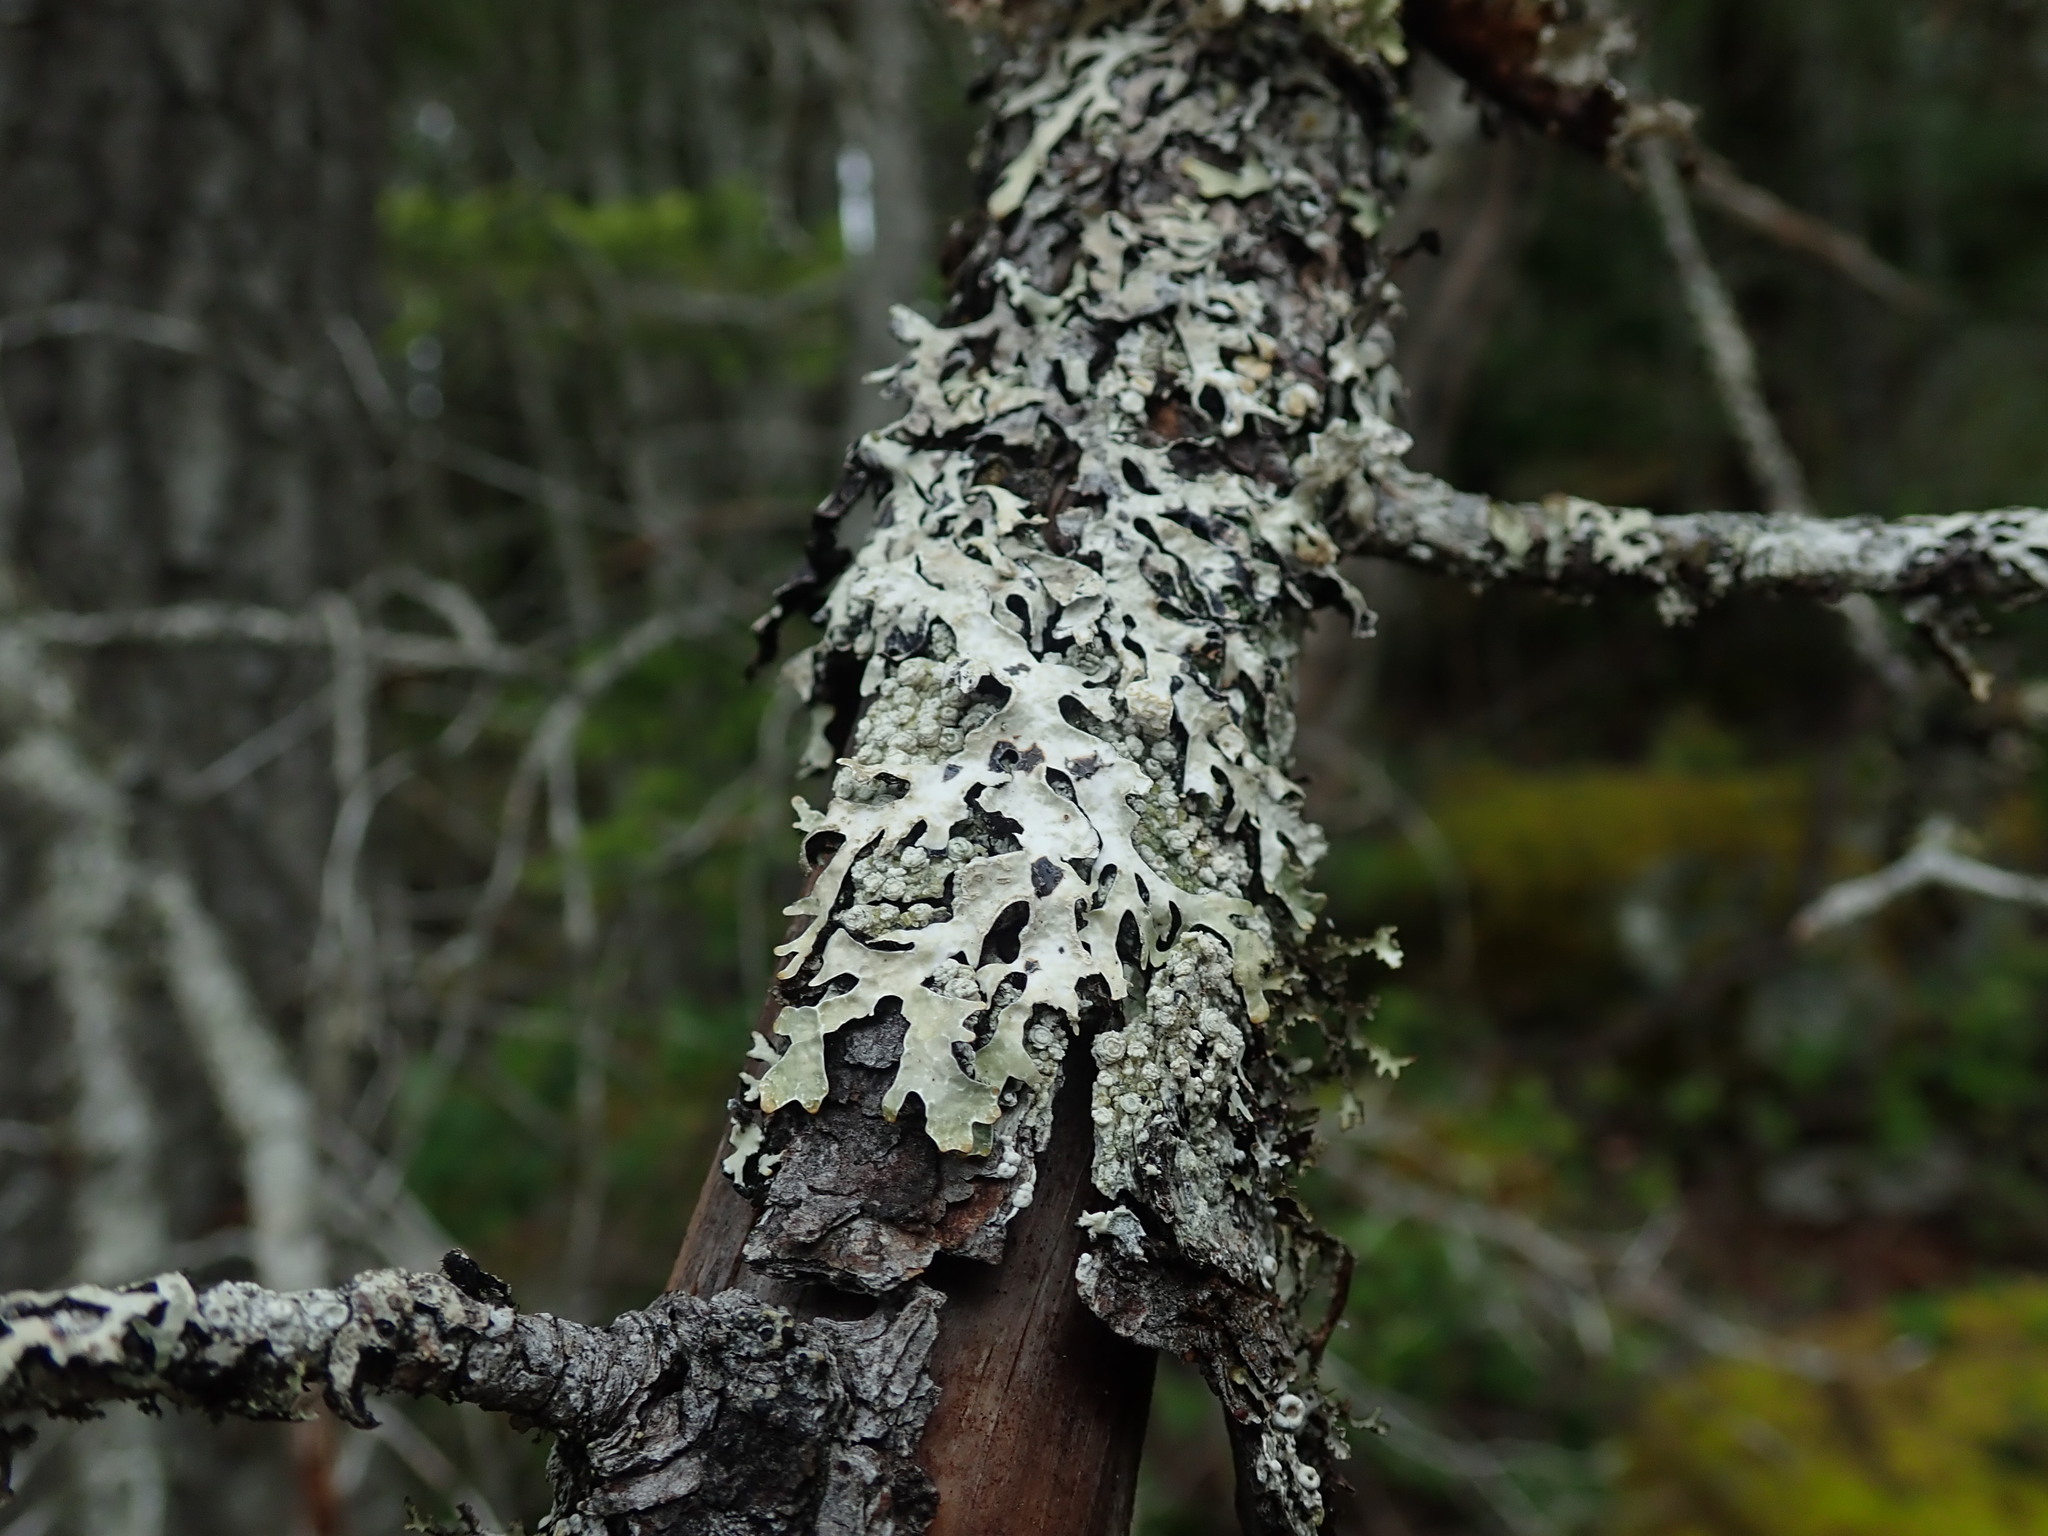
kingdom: Fungi
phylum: Ascomycota
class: Lecanoromycetes
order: Lecanorales
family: Parmeliaceae
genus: Parmelia
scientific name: Parmelia sulcata
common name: Netted shield lichen
